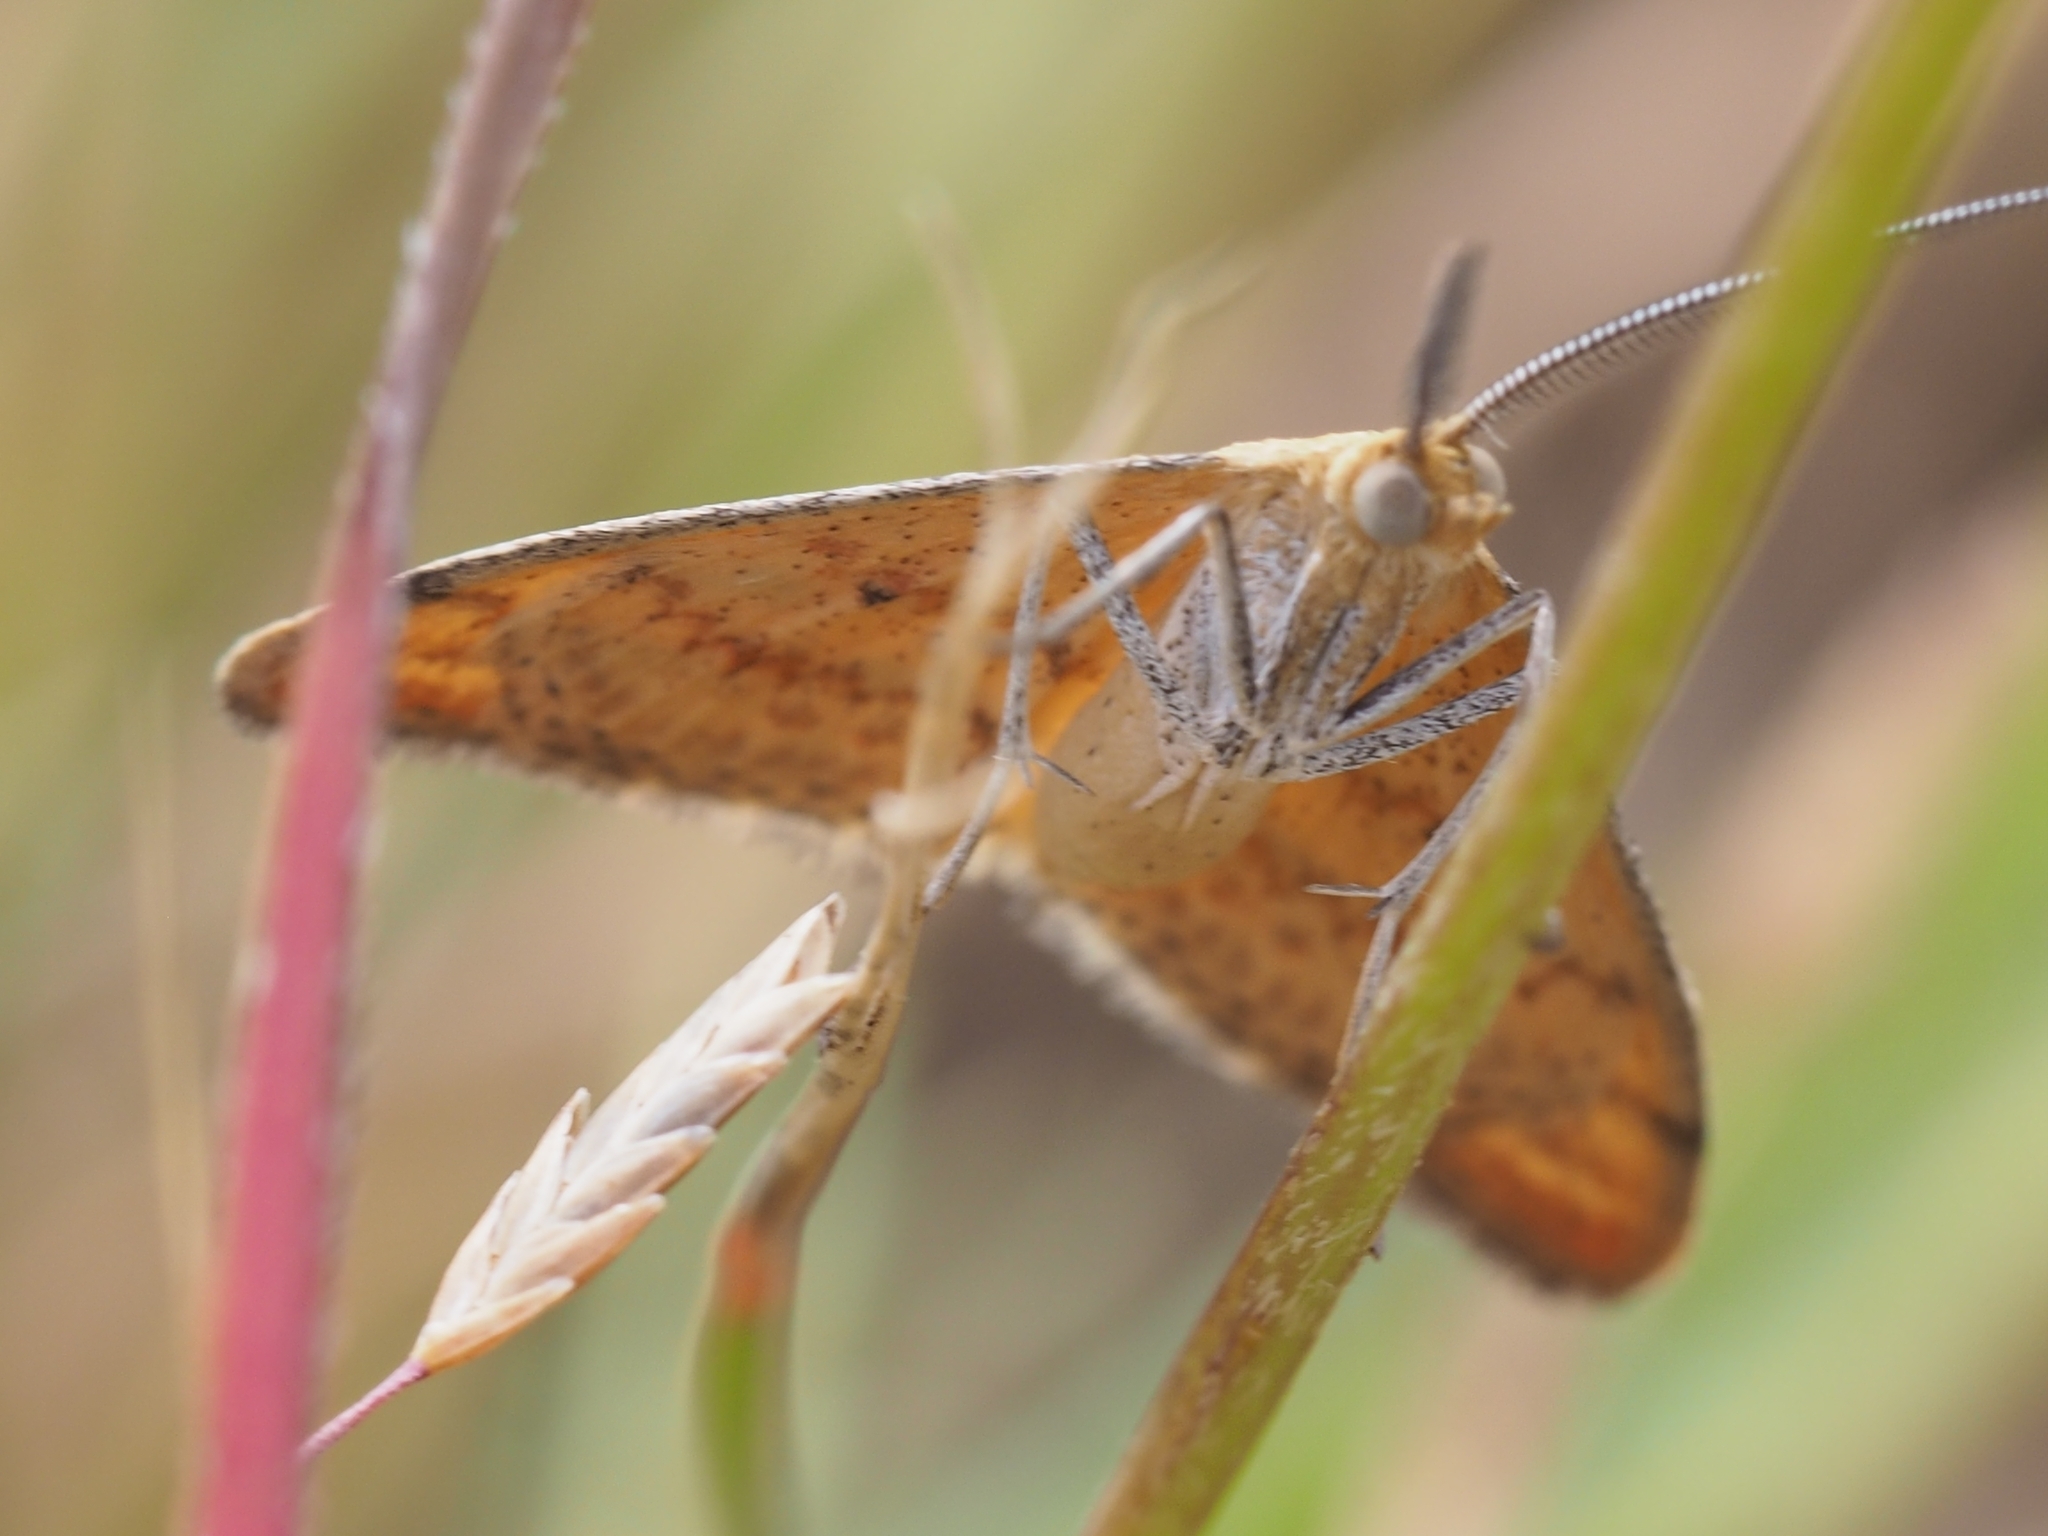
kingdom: Animalia
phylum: Arthropoda
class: Insecta
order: Lepidoptera
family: Geometridae
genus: Scopula
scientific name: Scopula rubraria
